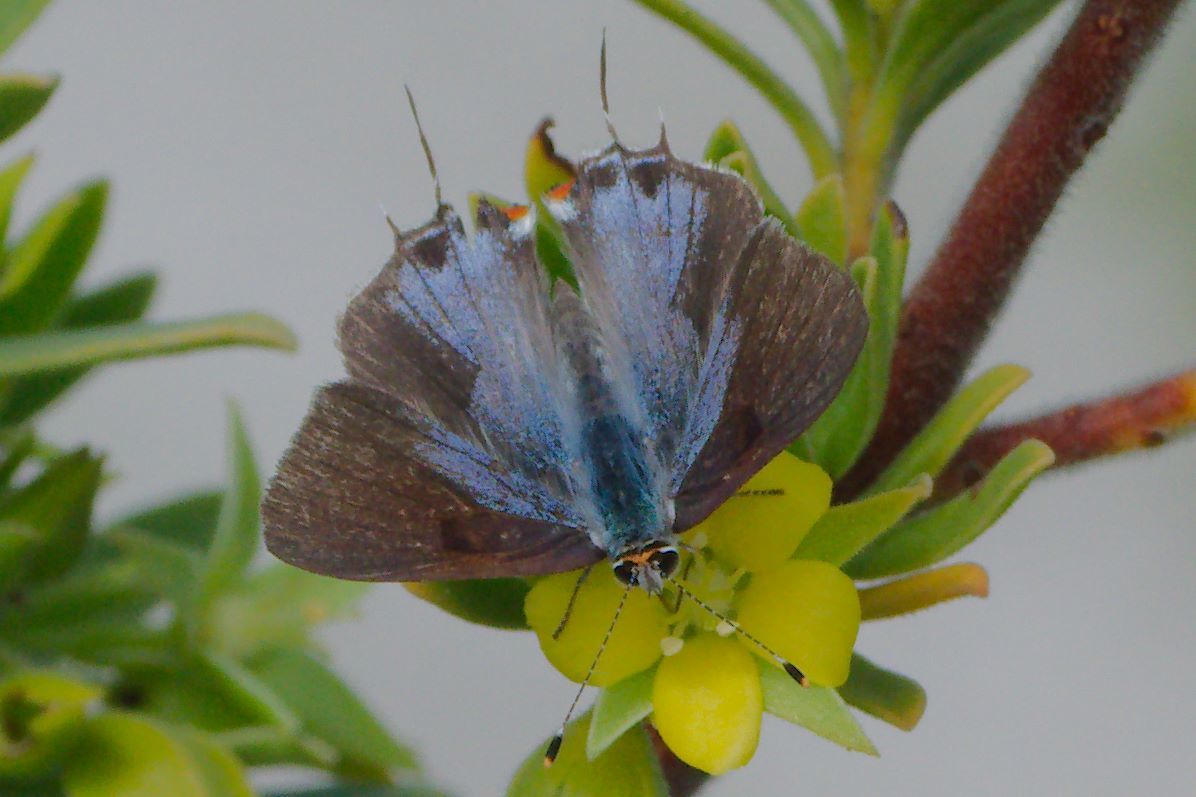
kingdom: Animalia
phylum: Arthropoda
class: Insecta
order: Lepidoptera
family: Lycaenidae
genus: Thecla
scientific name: Thecla martialis
